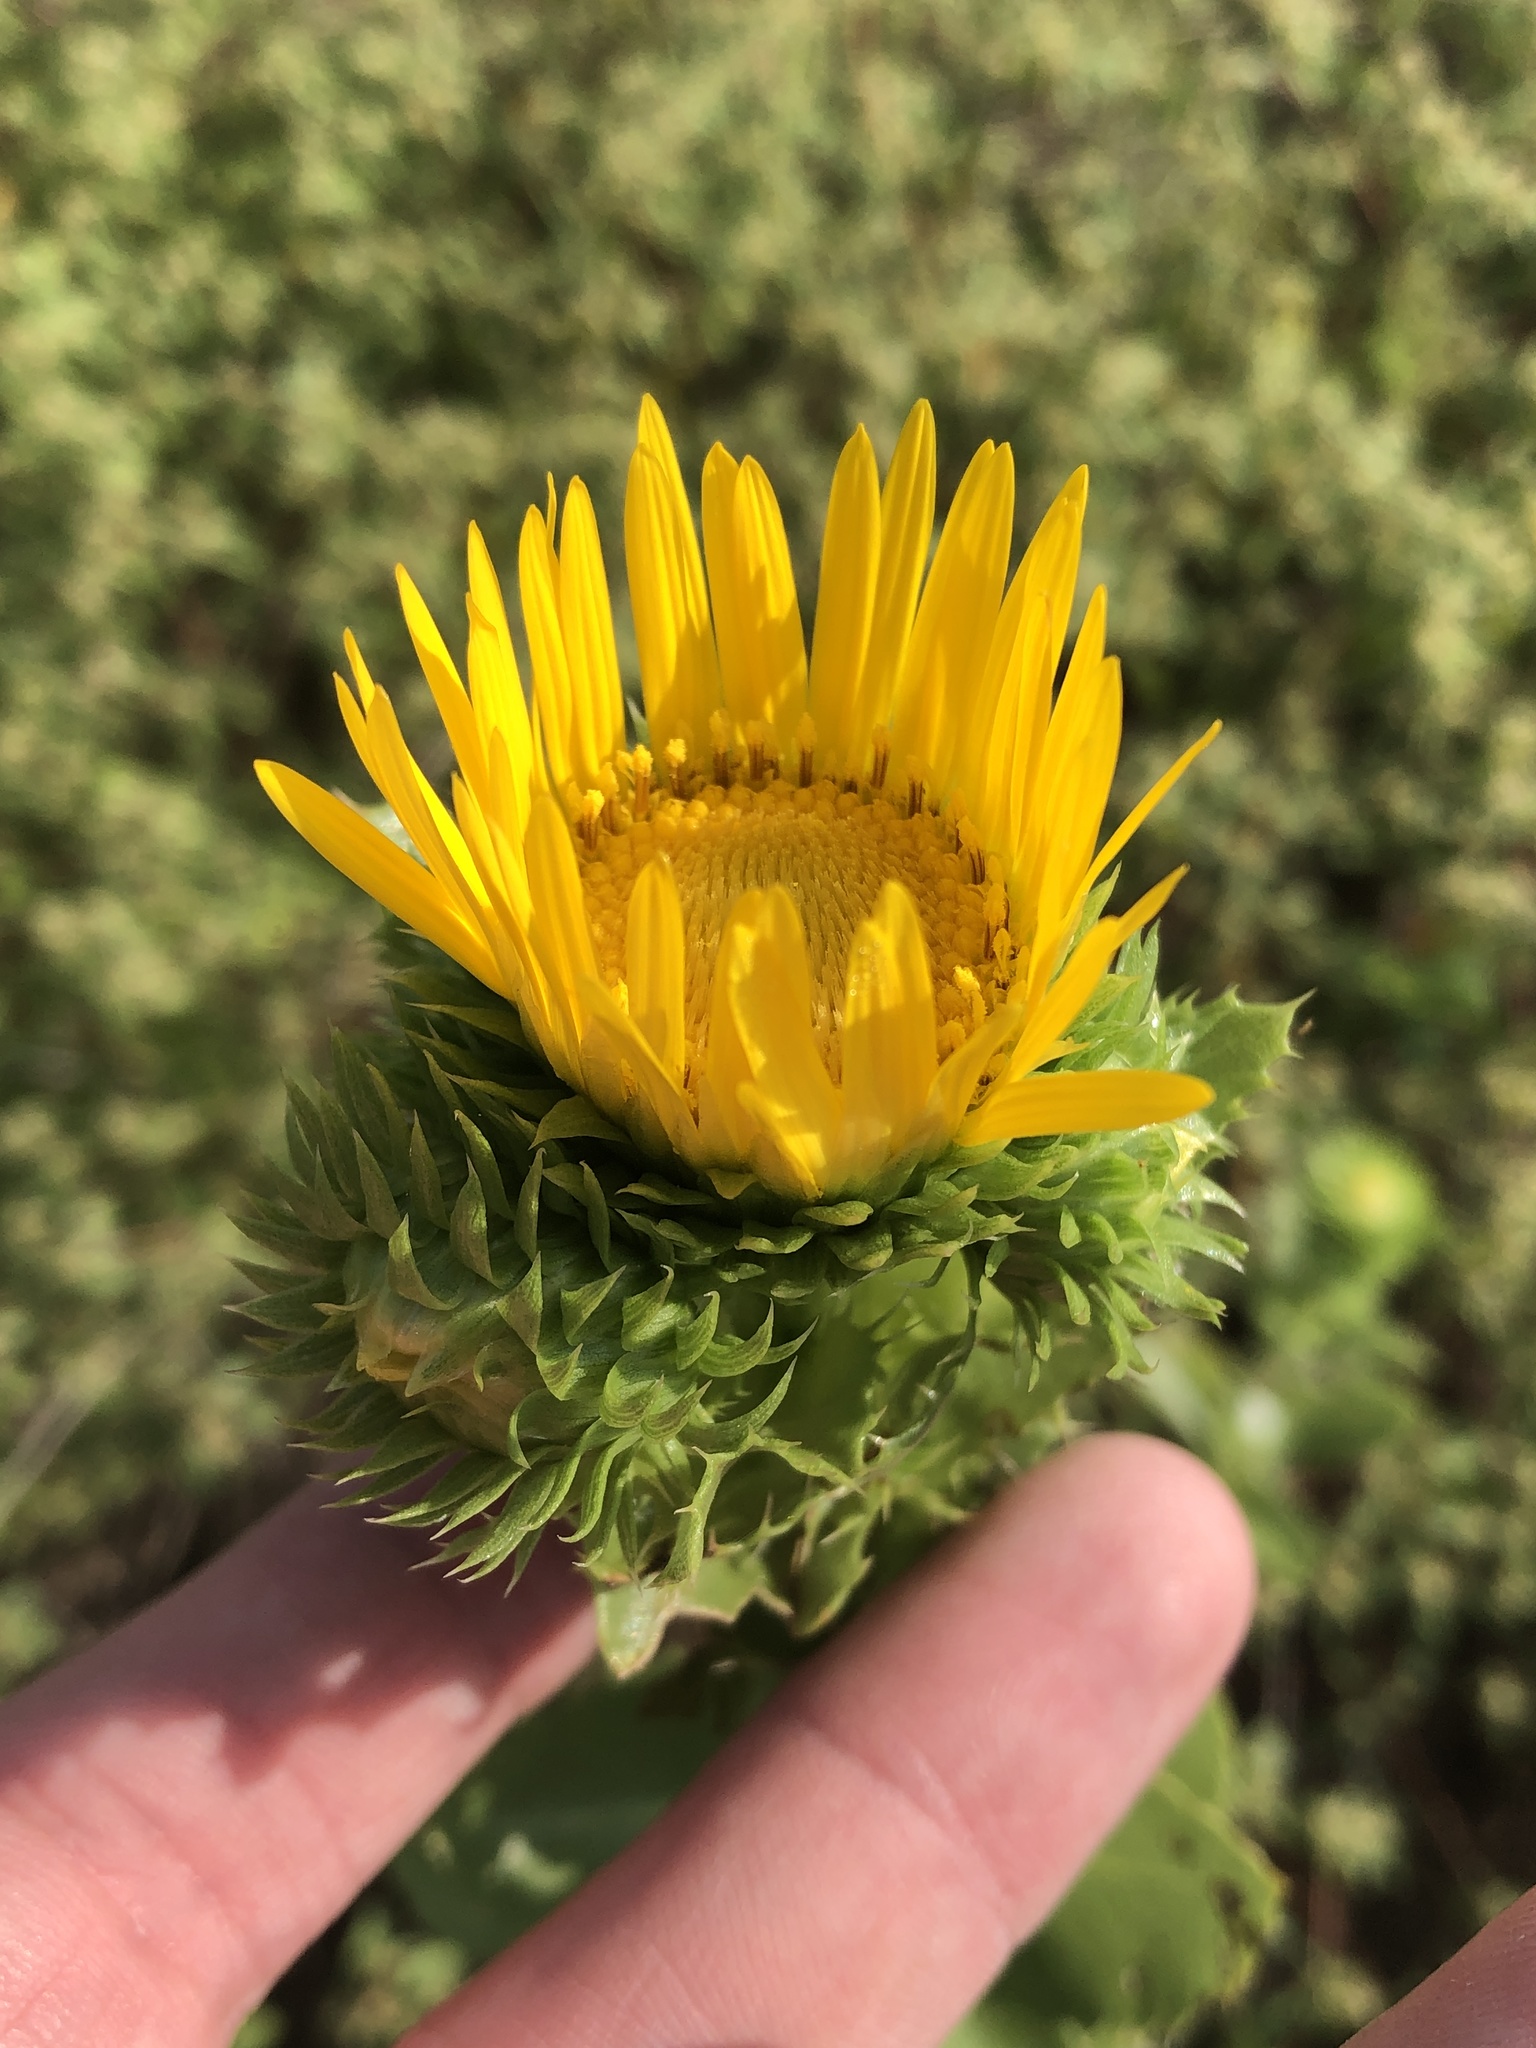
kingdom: Plantae
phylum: Tracheophyta
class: Magnoliopsida
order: Asterales
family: Asteraceae
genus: Grindelia
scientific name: Grindelia ciliata
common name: Goldenweed
